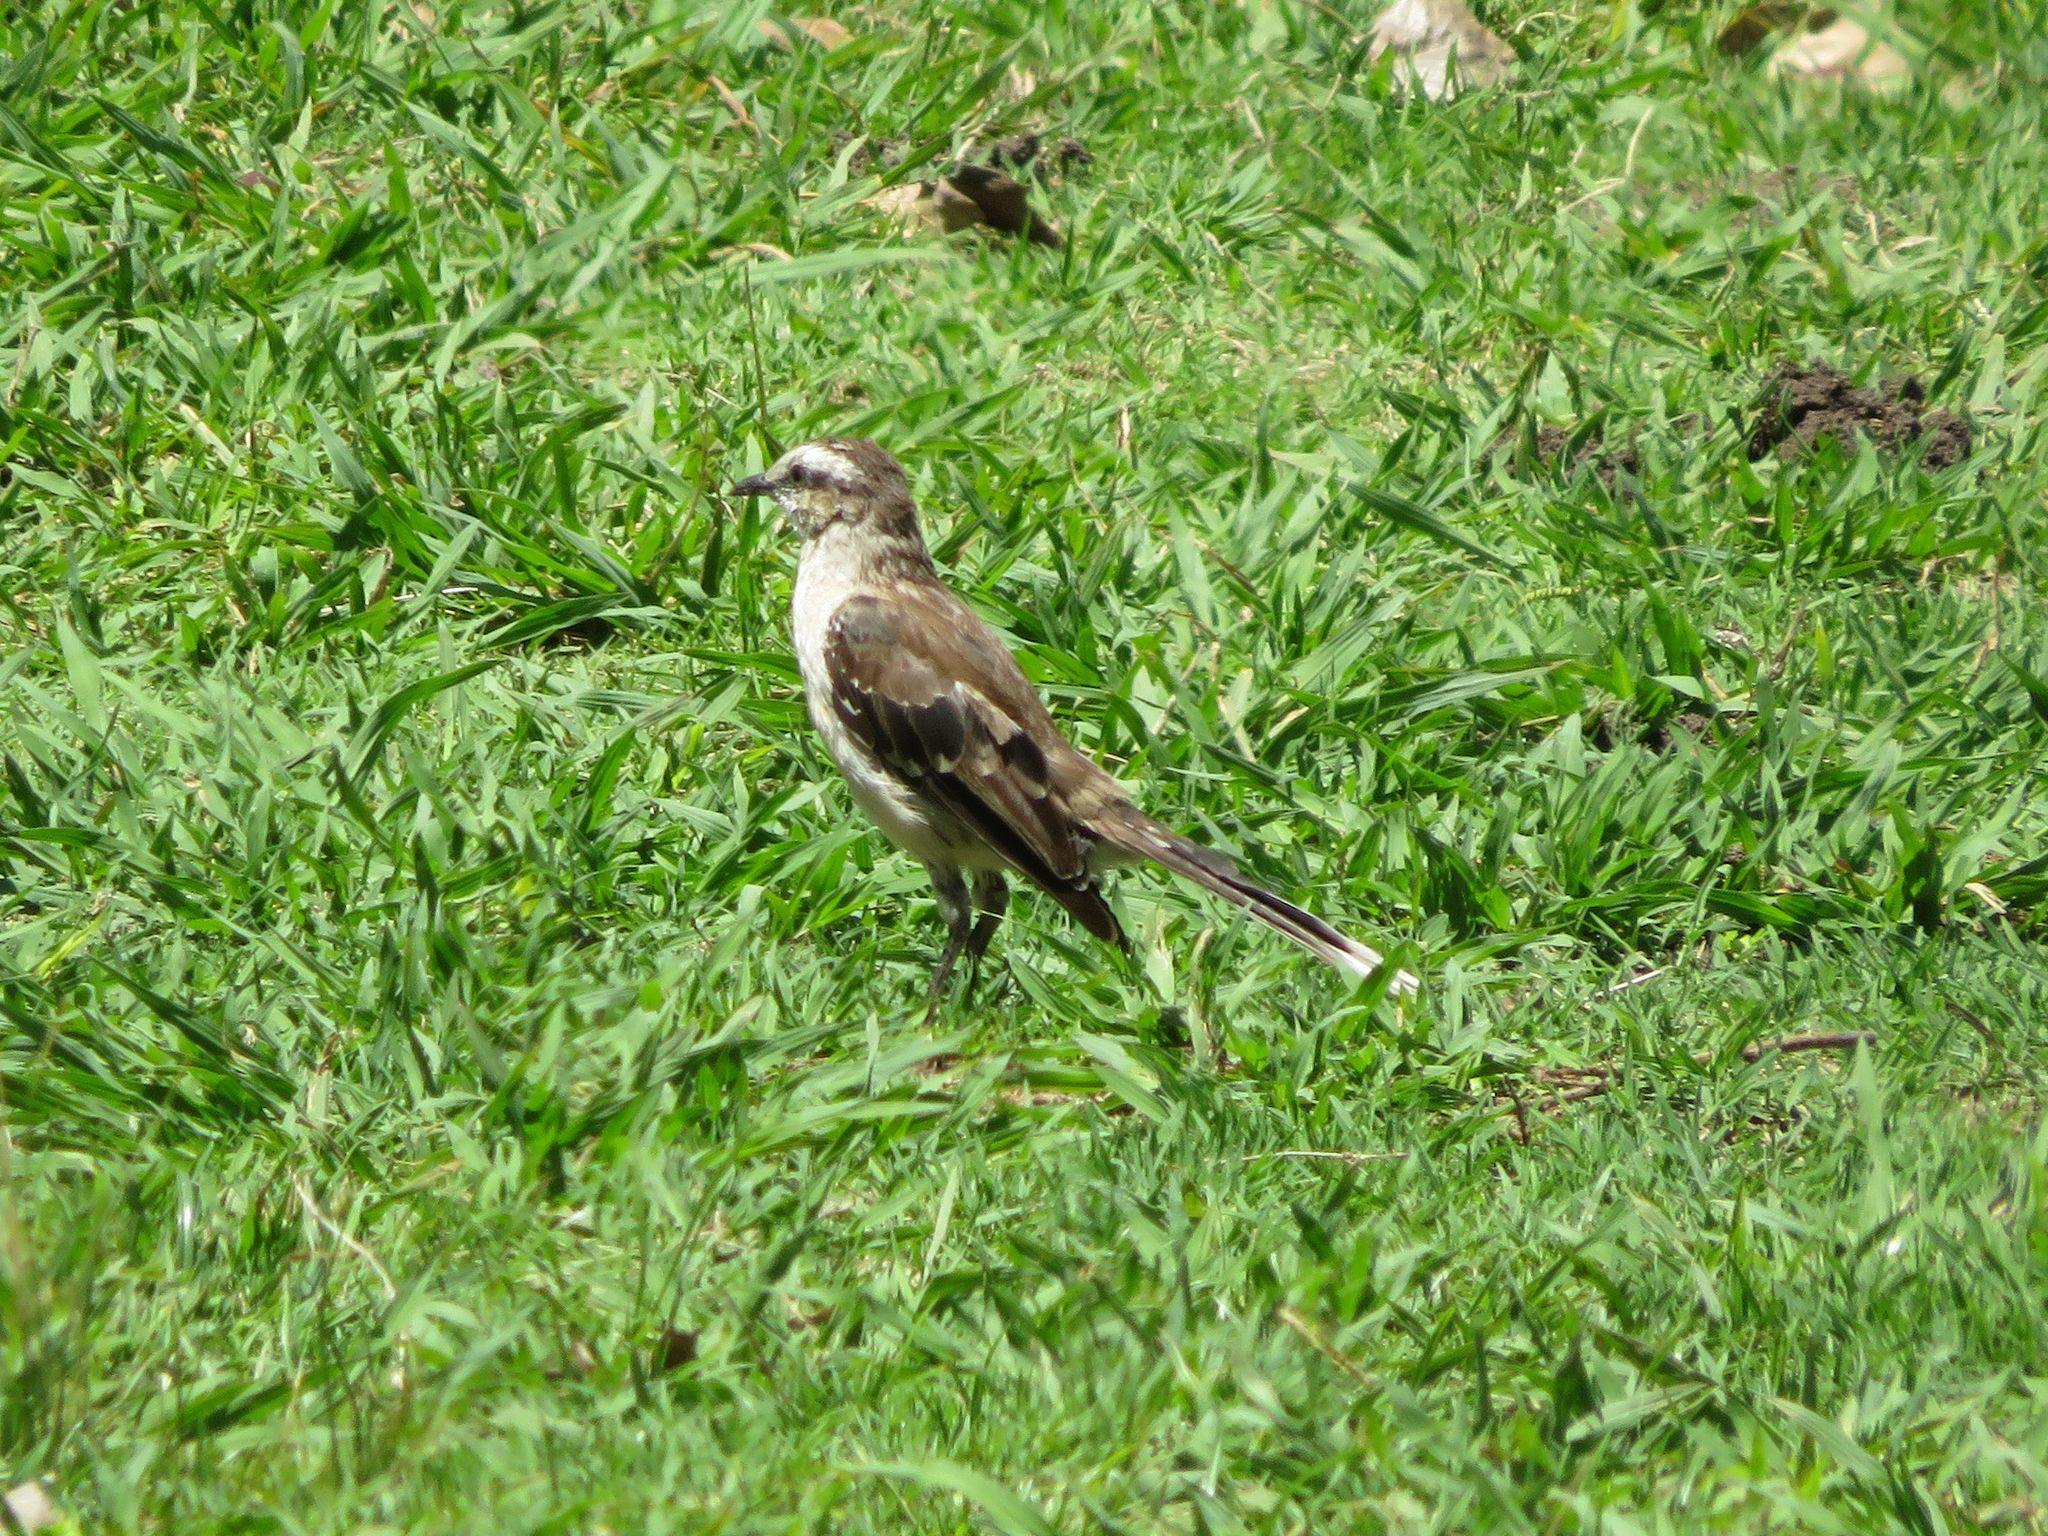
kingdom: Animalia
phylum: Chordata
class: Aves
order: Passeriformes
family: Mimidae
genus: Mimus
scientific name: Mimus saturninus
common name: Chalk-browed mockingbird
